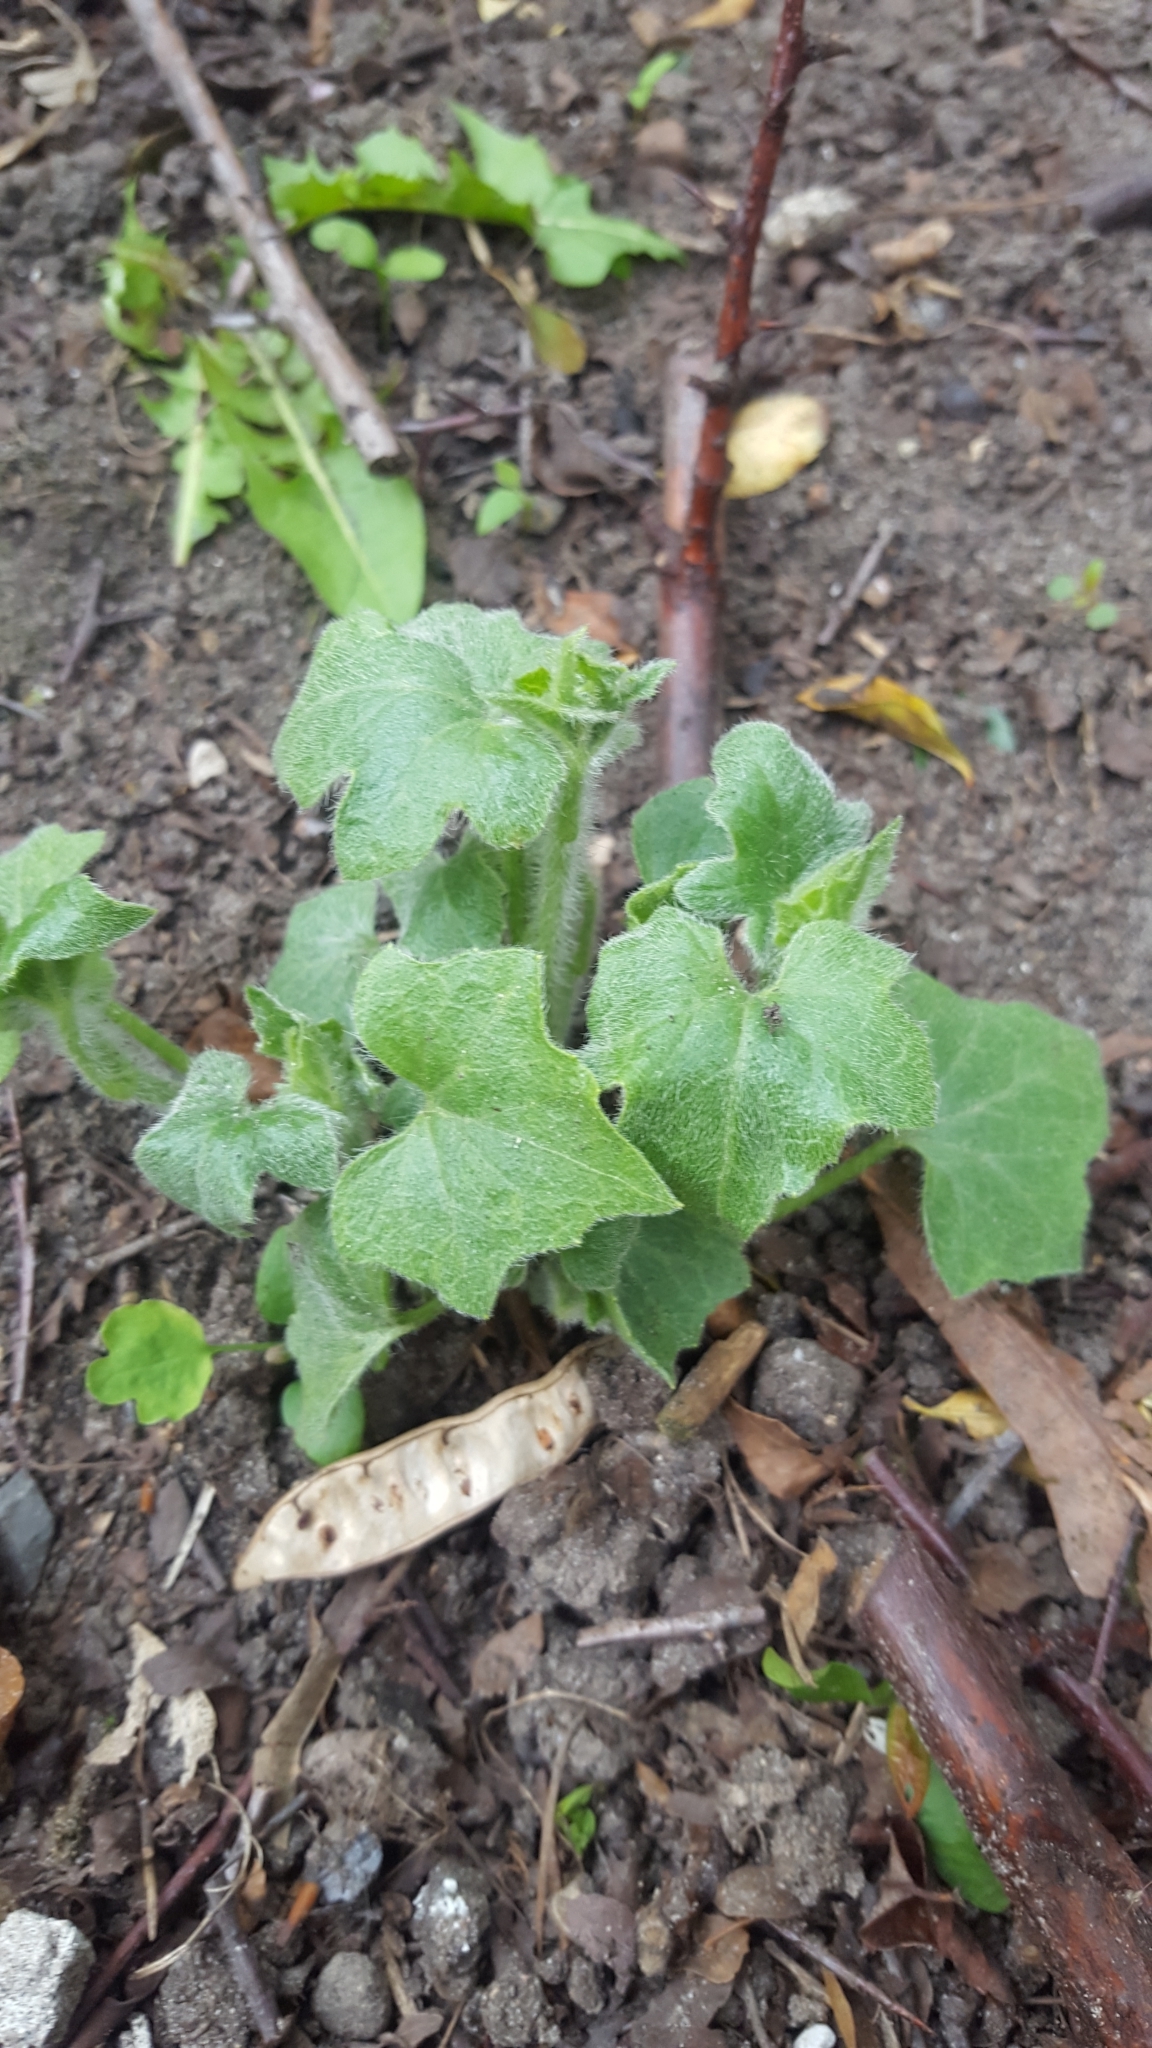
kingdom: Plantae
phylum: Tracheophyta
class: Magnoliopsida
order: Cucurbitales
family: Cucurbitaceae
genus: Bryonia
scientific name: Bryonia cretica
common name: Cretan bryony
